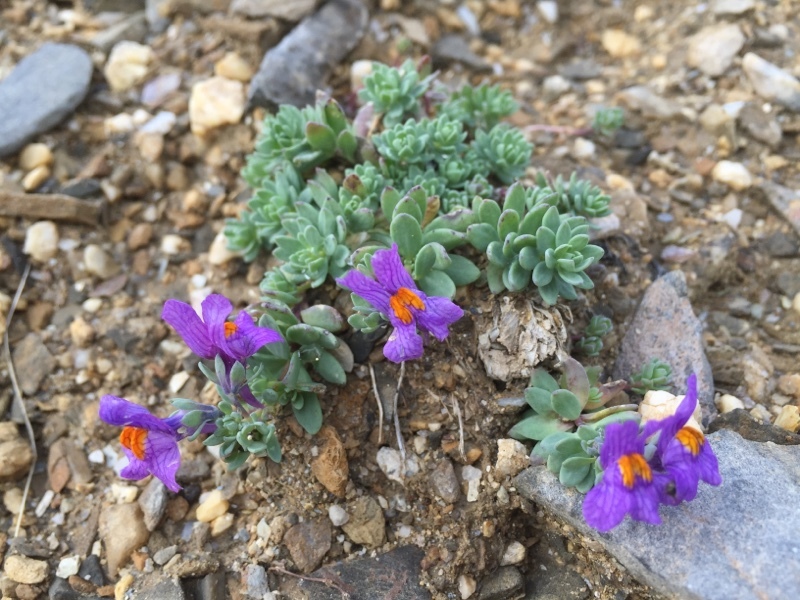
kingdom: Plantae
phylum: Tracheophyta
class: Magnoliopsida
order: Lamiales
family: Plantaginaceae
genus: Linaria
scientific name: Linaria alpina
